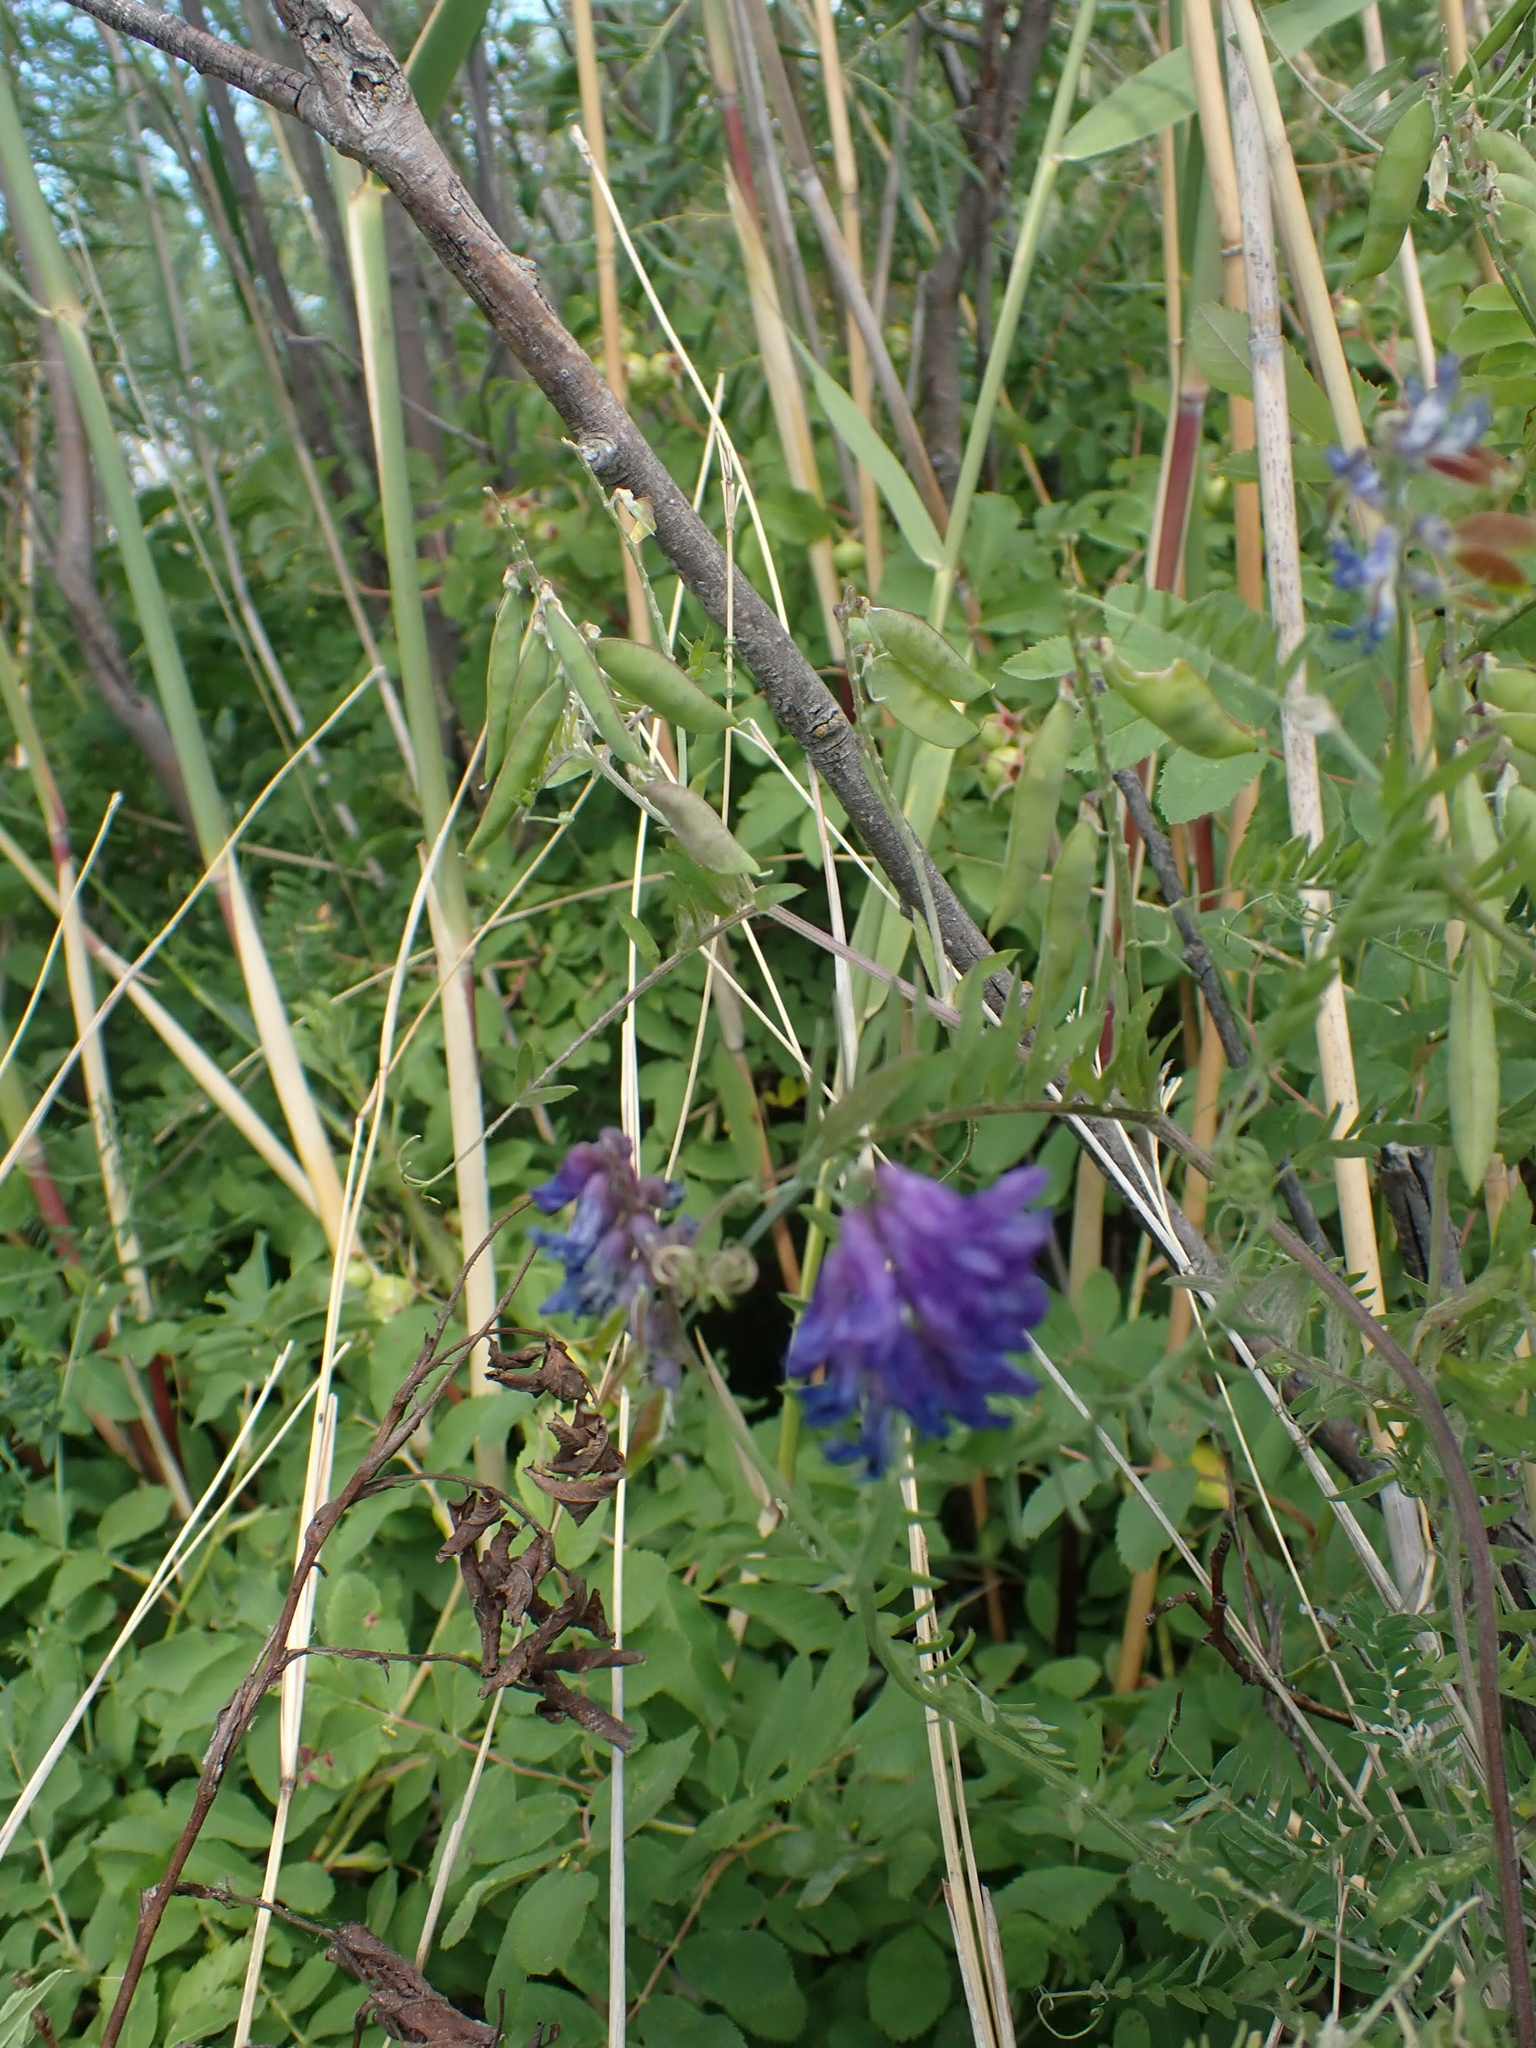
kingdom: Plantae
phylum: Tracheophyta
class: Magnoliopsida
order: Fabales
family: Fabaceae
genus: Vicia
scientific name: Vicia cracca
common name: Bird vetch
